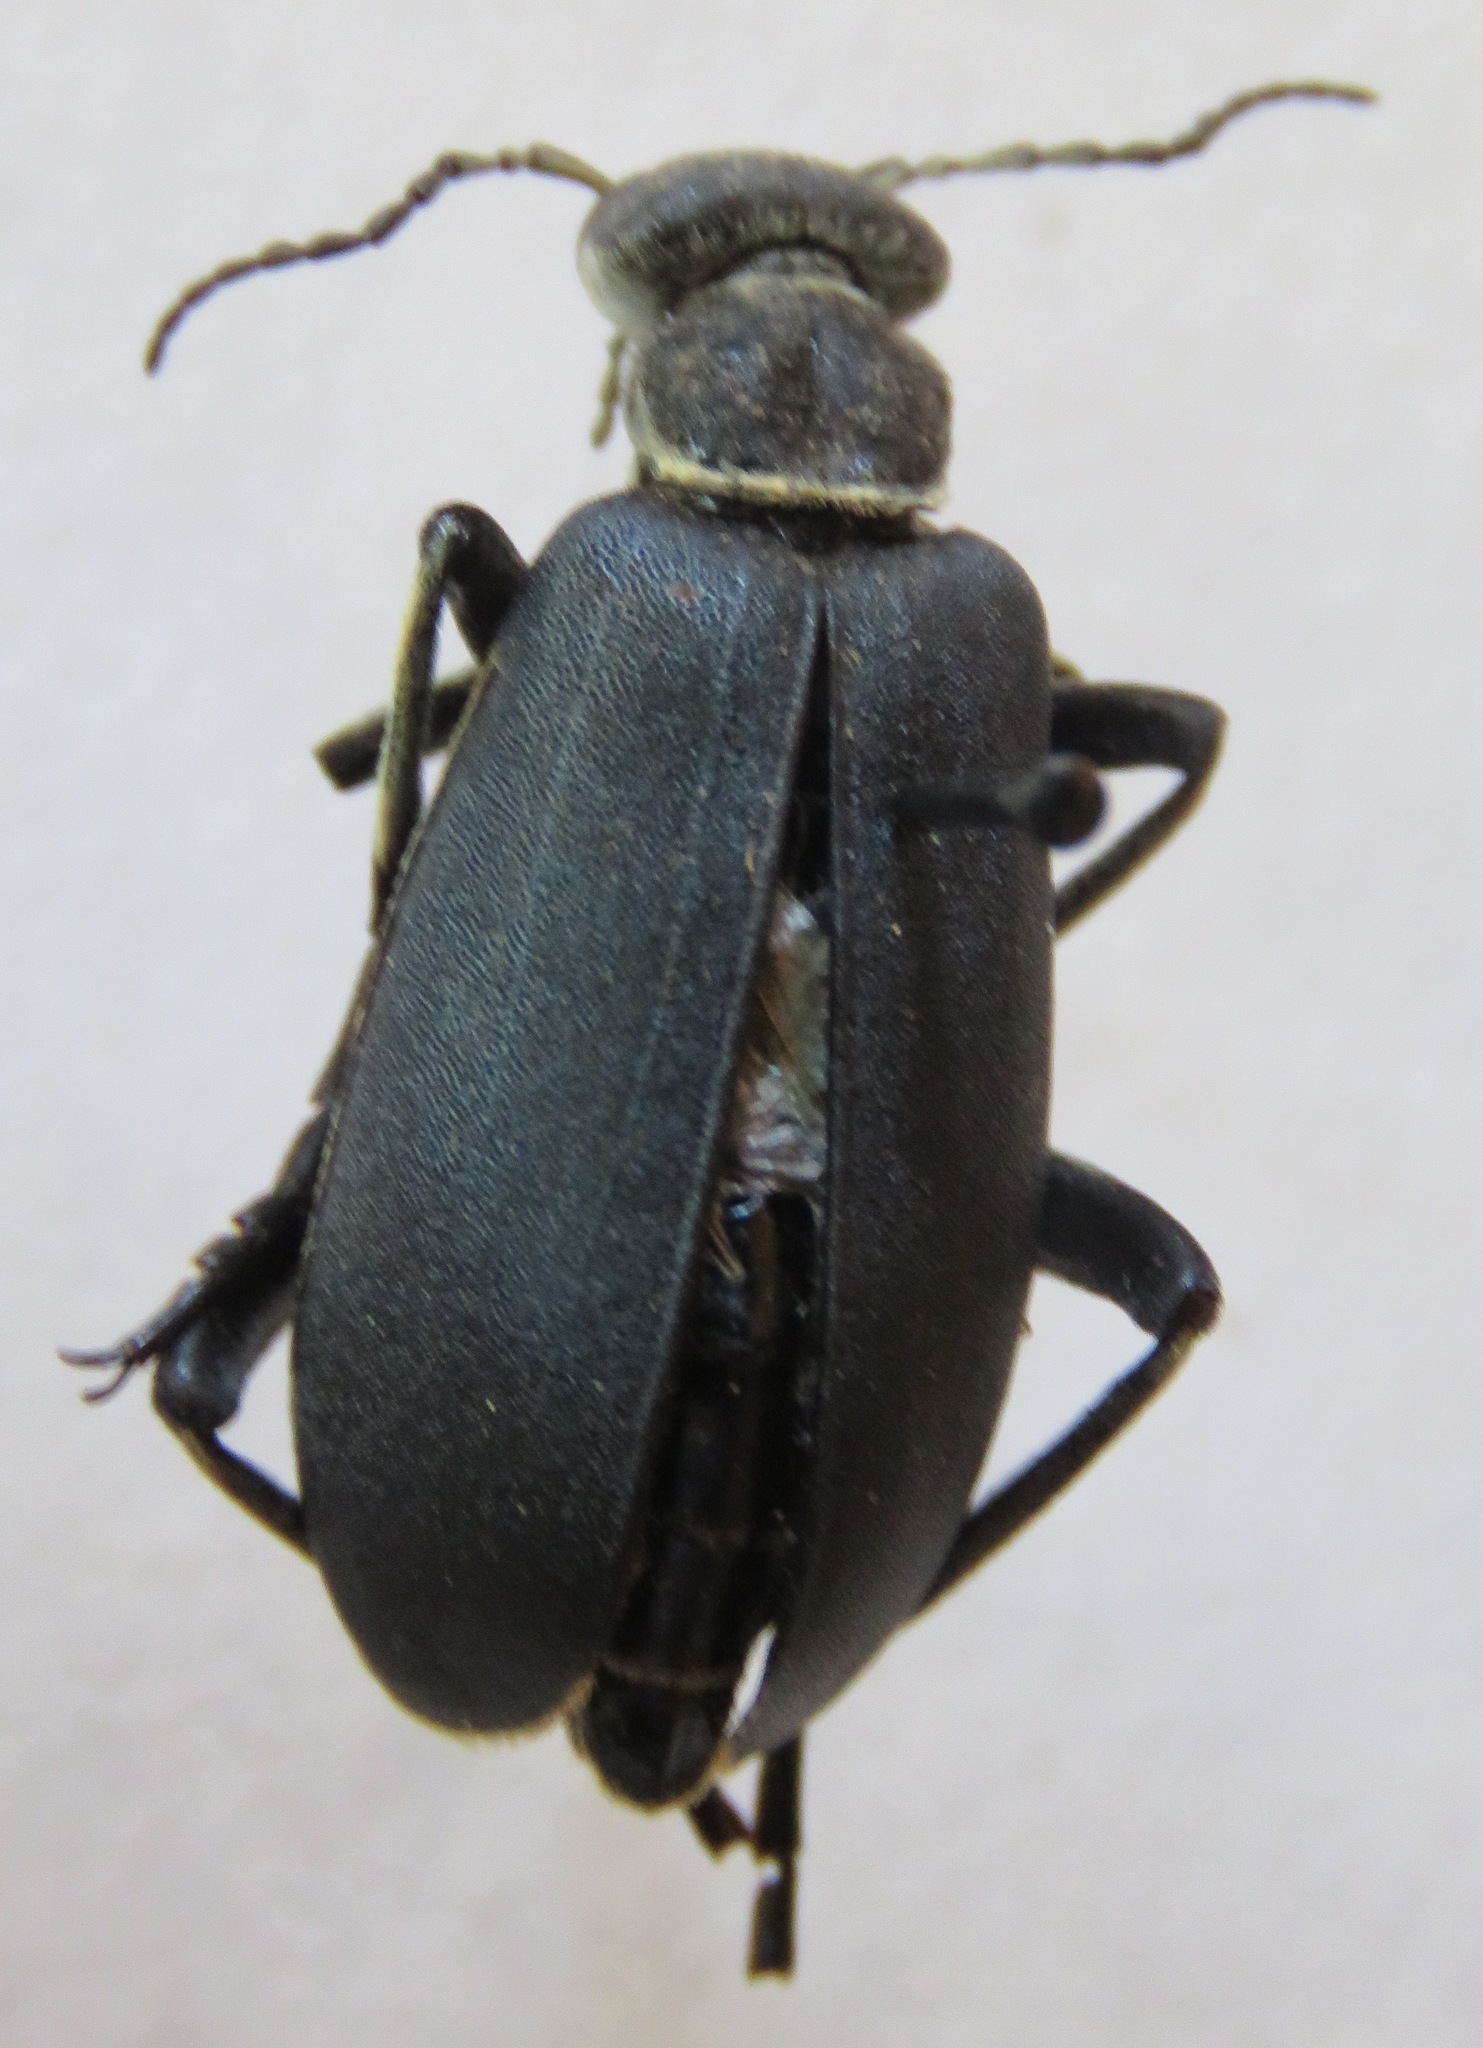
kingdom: Animalia
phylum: Arthropoda
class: Insecta
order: Coleoptera
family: Meloidae
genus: Epicauta
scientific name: Epicauta
